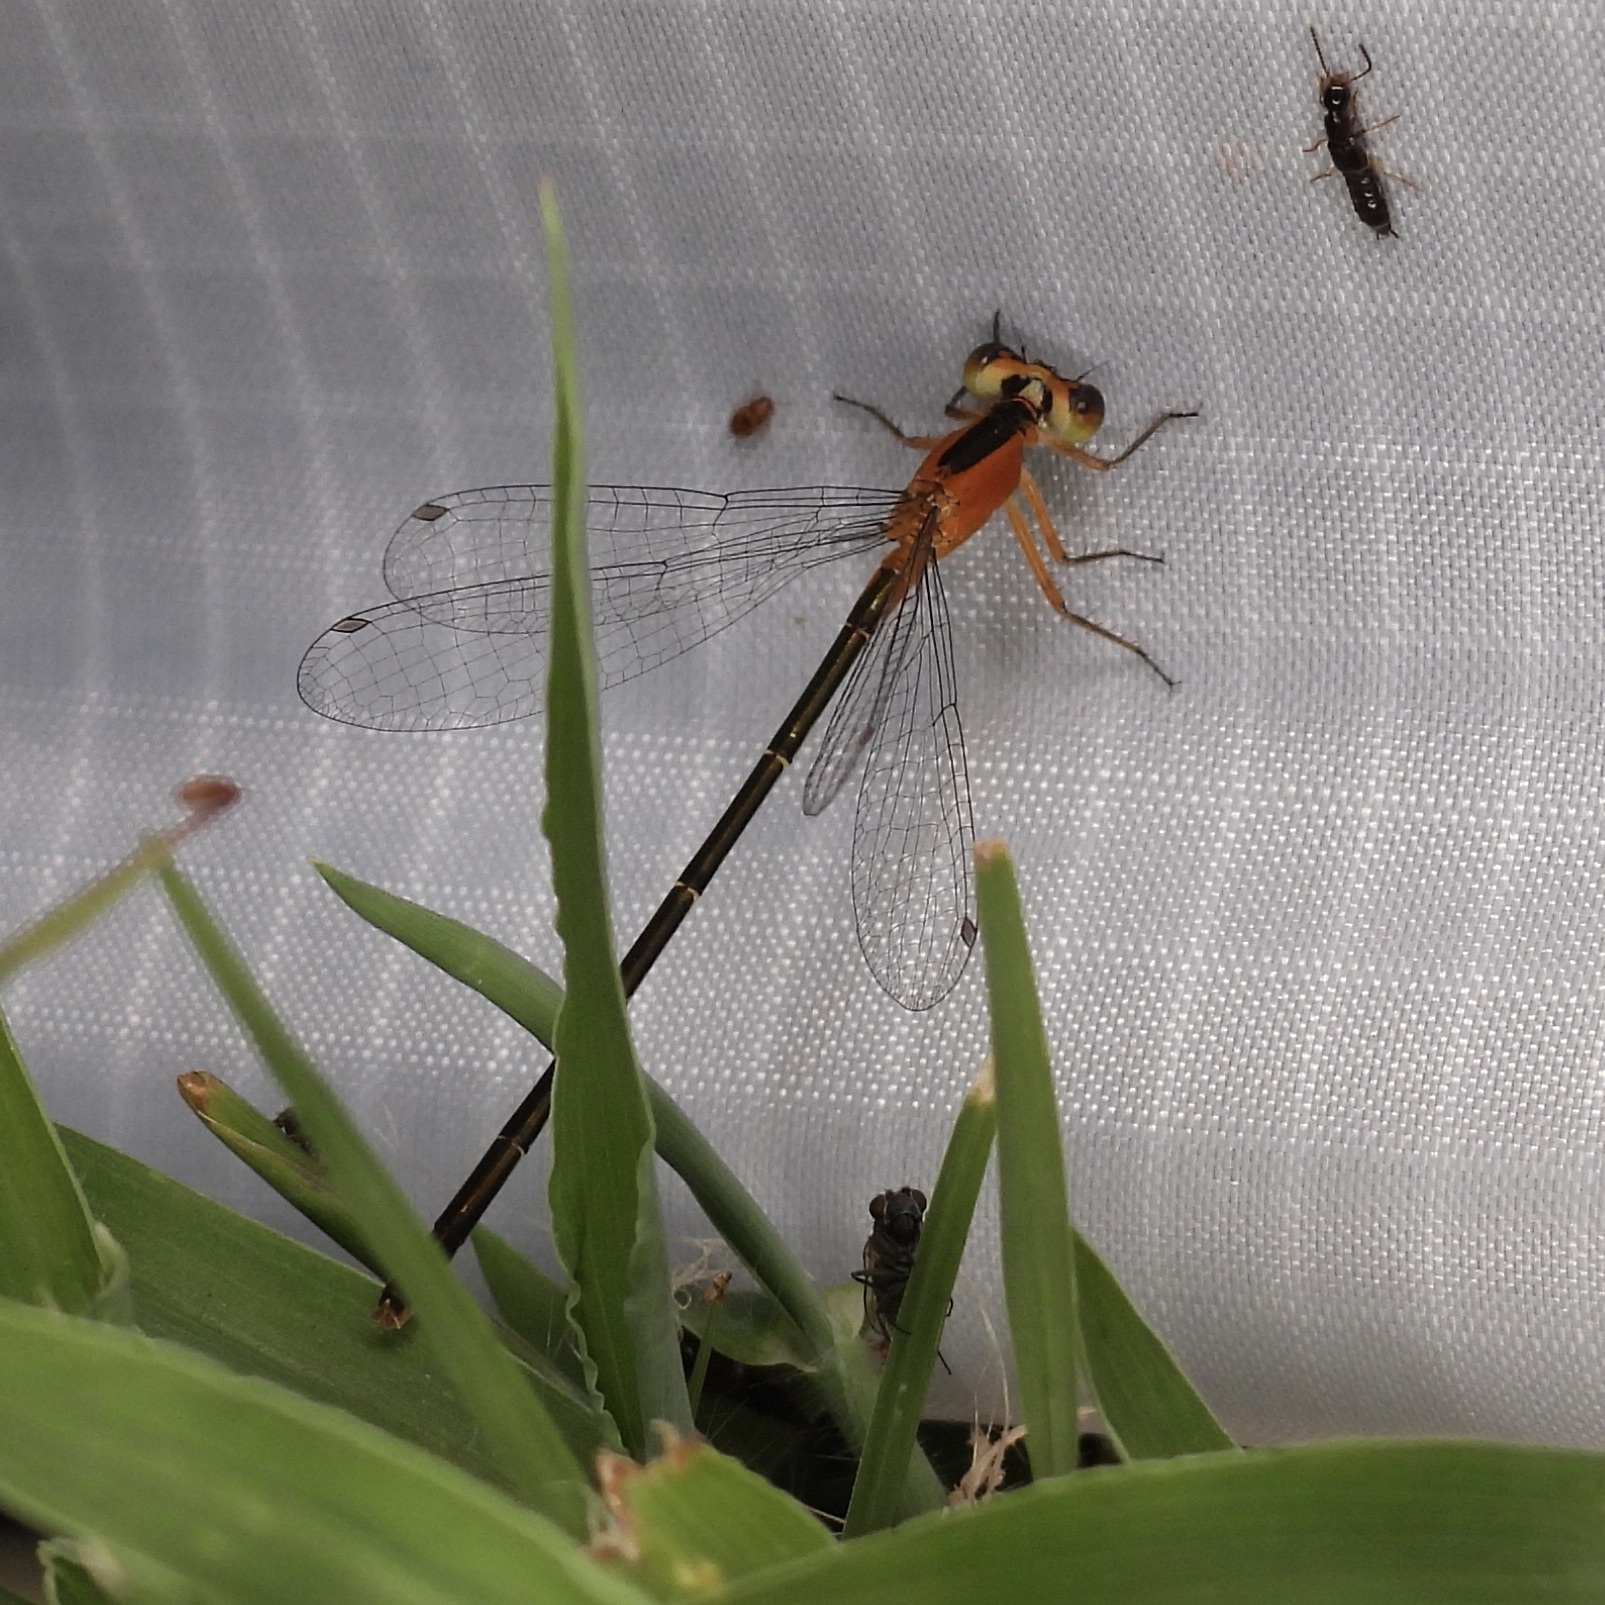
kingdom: Animalia
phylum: Arthropoda
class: Insecta
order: Odonata
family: Coenagrionidae
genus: Ischnura
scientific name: Ischnura ramburii
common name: Rambur's forktail
